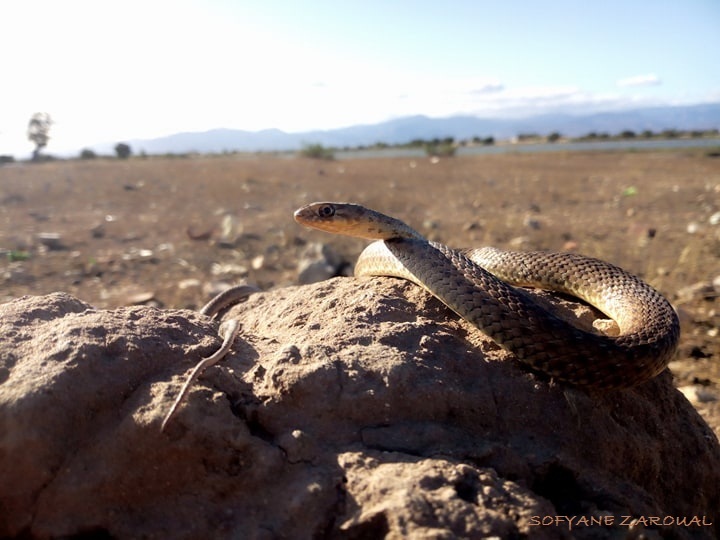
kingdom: Animalia
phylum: Chordata
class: Squamata
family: Psammophiidae
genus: Malpolon
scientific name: Malpolon monspessulanus
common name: Montpellier snake
